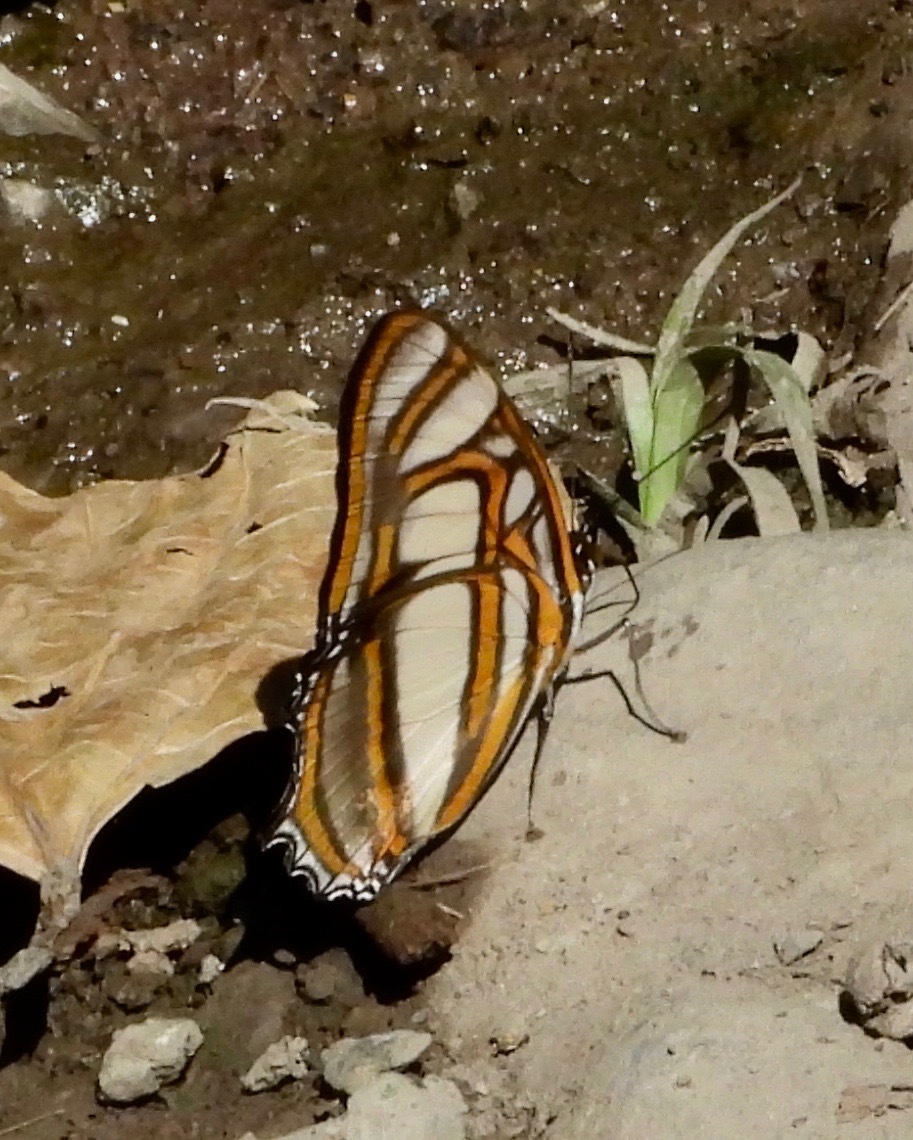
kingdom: Animalia
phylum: Arthropoda
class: Insecta
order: Lepidoptera
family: Nymphalidae
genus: Metamorpha
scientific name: Metamorpha elissa
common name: Elissa page
